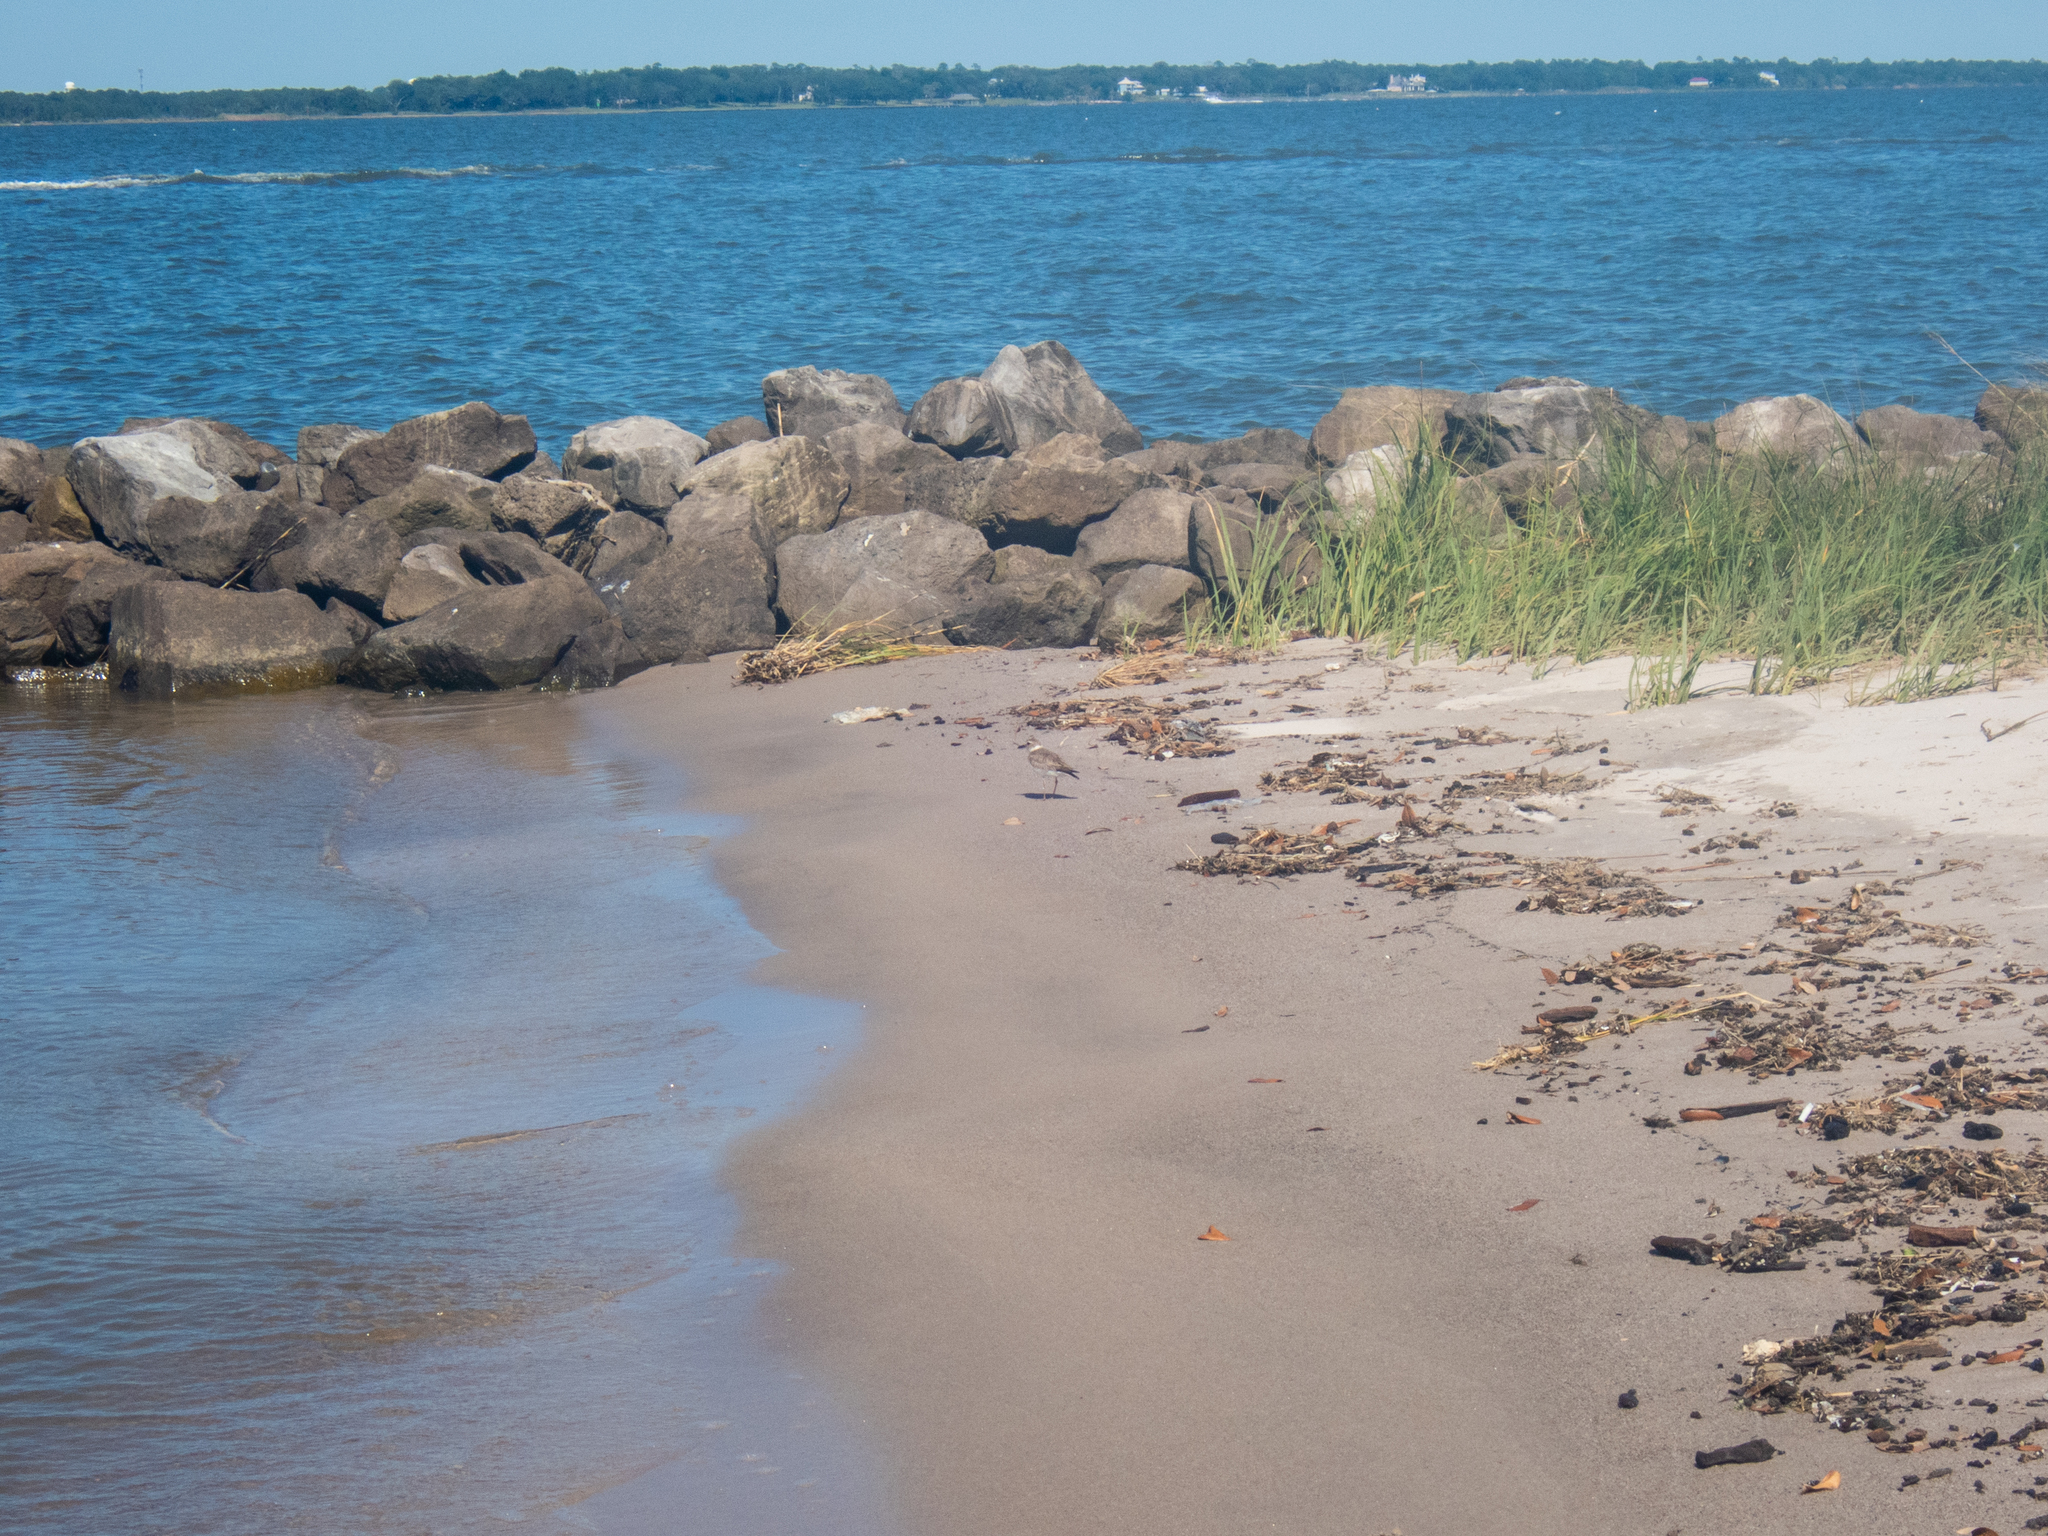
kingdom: Animalia
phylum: Chordata
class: Aves
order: Charadriiformes
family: Charadriidae
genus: Anarhynchus
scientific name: Anarhynchus
